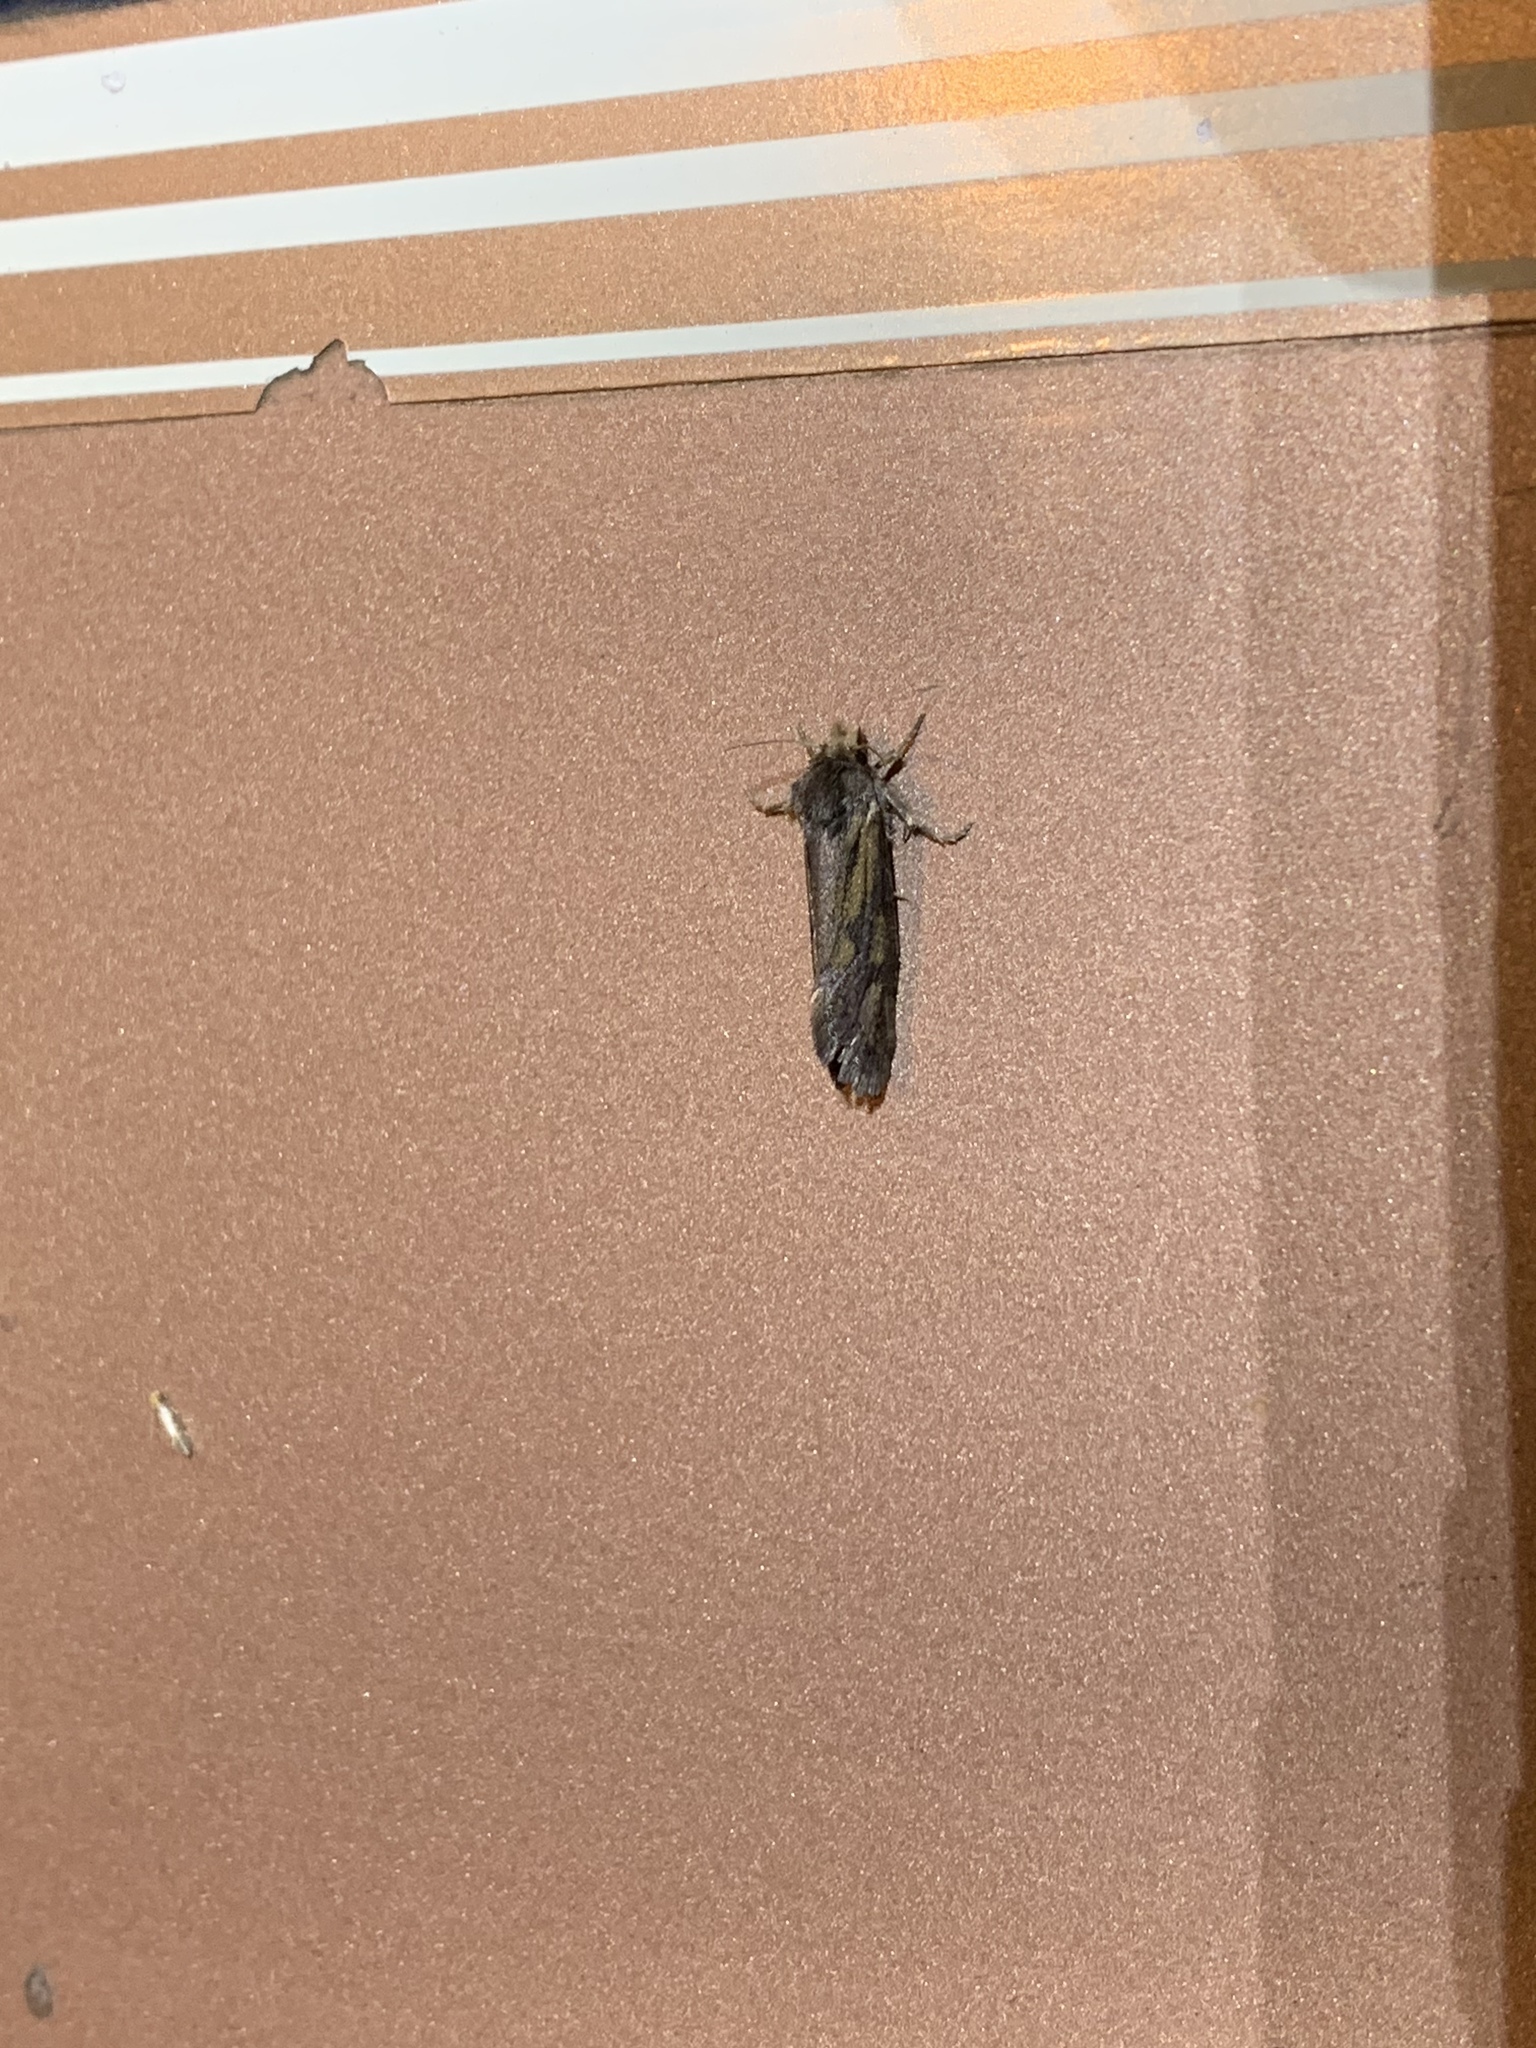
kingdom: Animalia
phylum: Arthropoda
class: Insecta
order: Lepidoptera
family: Tineidae
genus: Acrolophus
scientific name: Acrolophus popeanella
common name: Clemens' grass tubeworm moth
